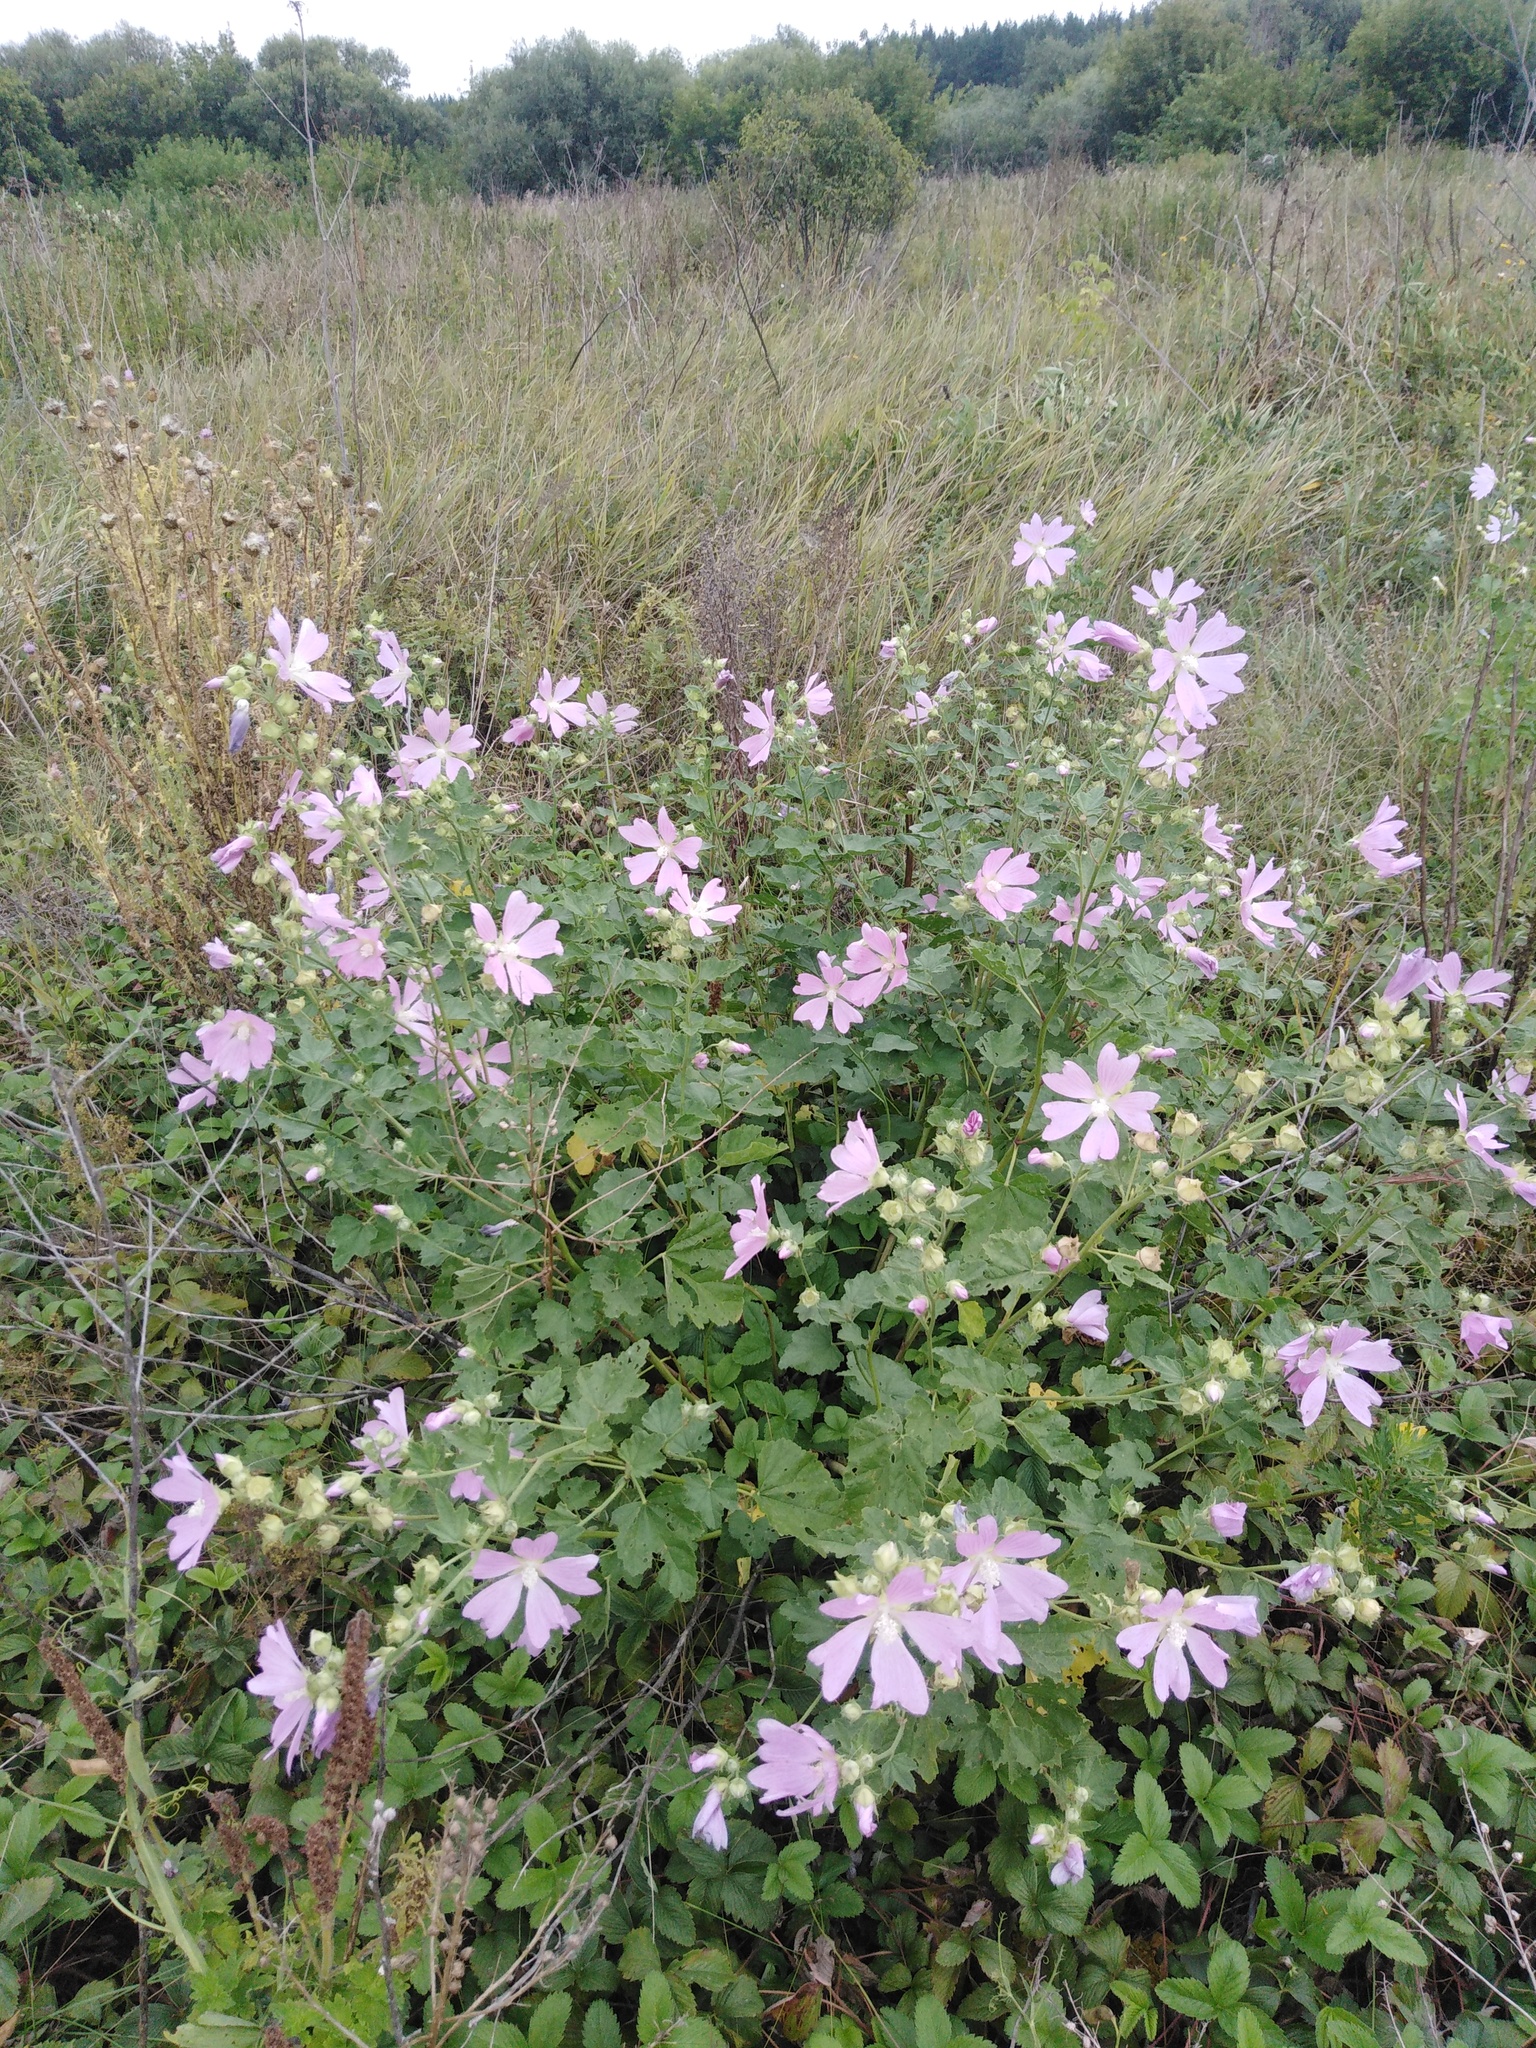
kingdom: Plantae
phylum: Tracheophyta
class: Magnoliopsida
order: Malvales
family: Malvaceae
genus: Malva
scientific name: Malva thuringiaca
